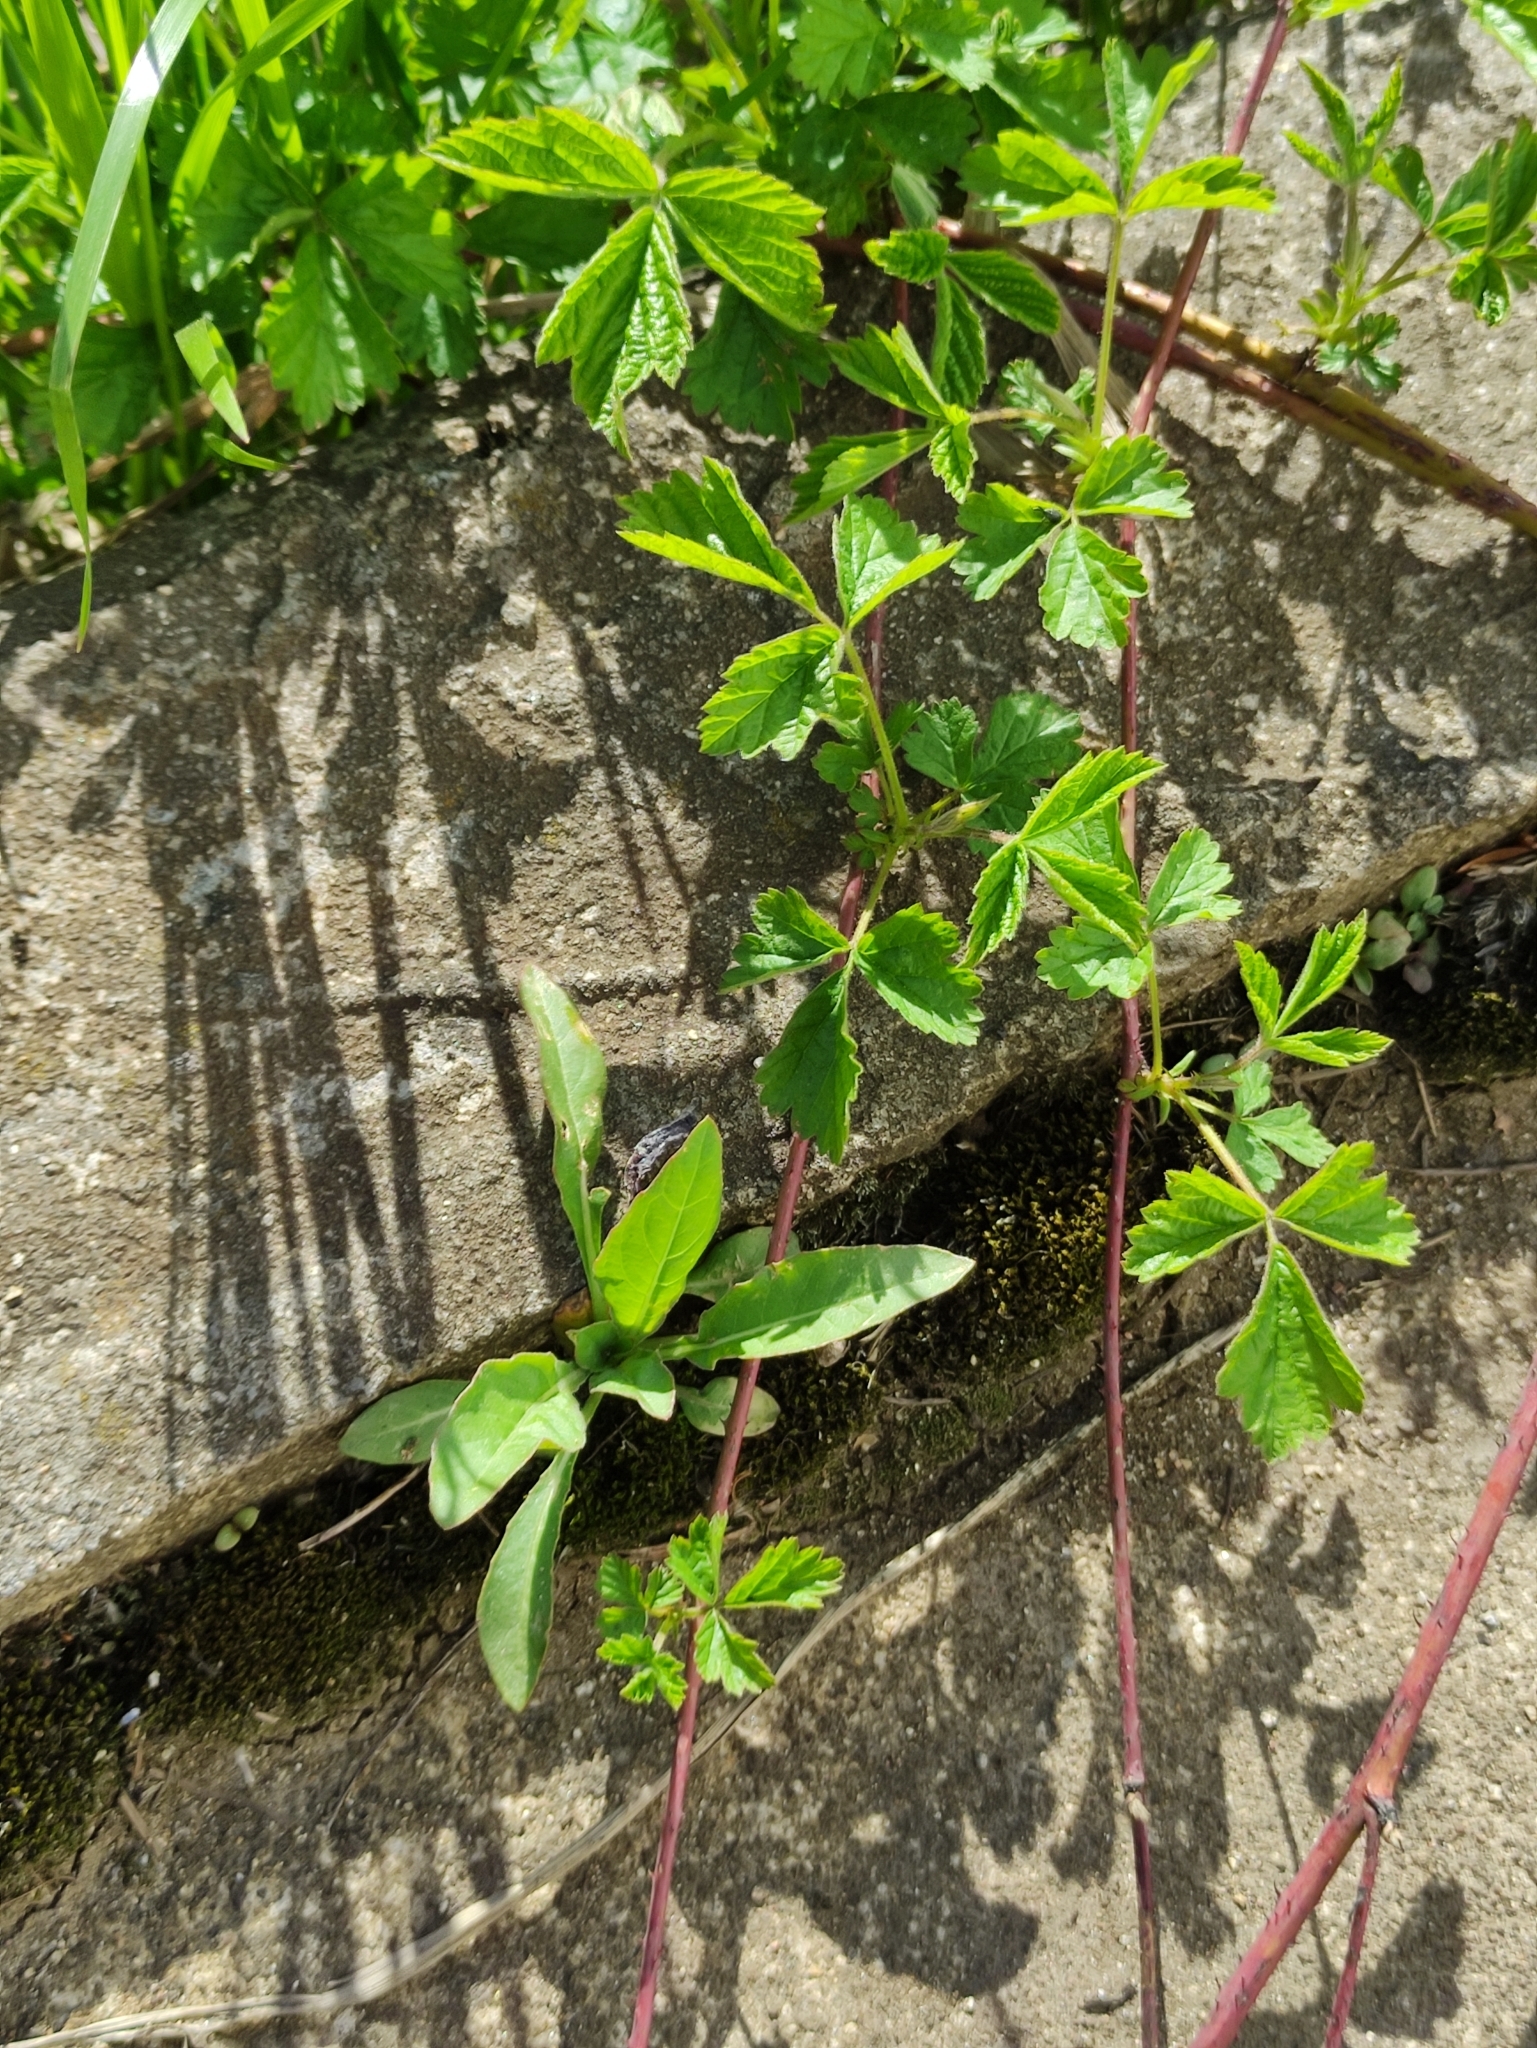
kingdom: Plantae
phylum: Tracheophyta
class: Magnoliopsida
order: Rosales
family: Rosaceae
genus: Rubus
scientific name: Rubus caesius
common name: Dewberry
